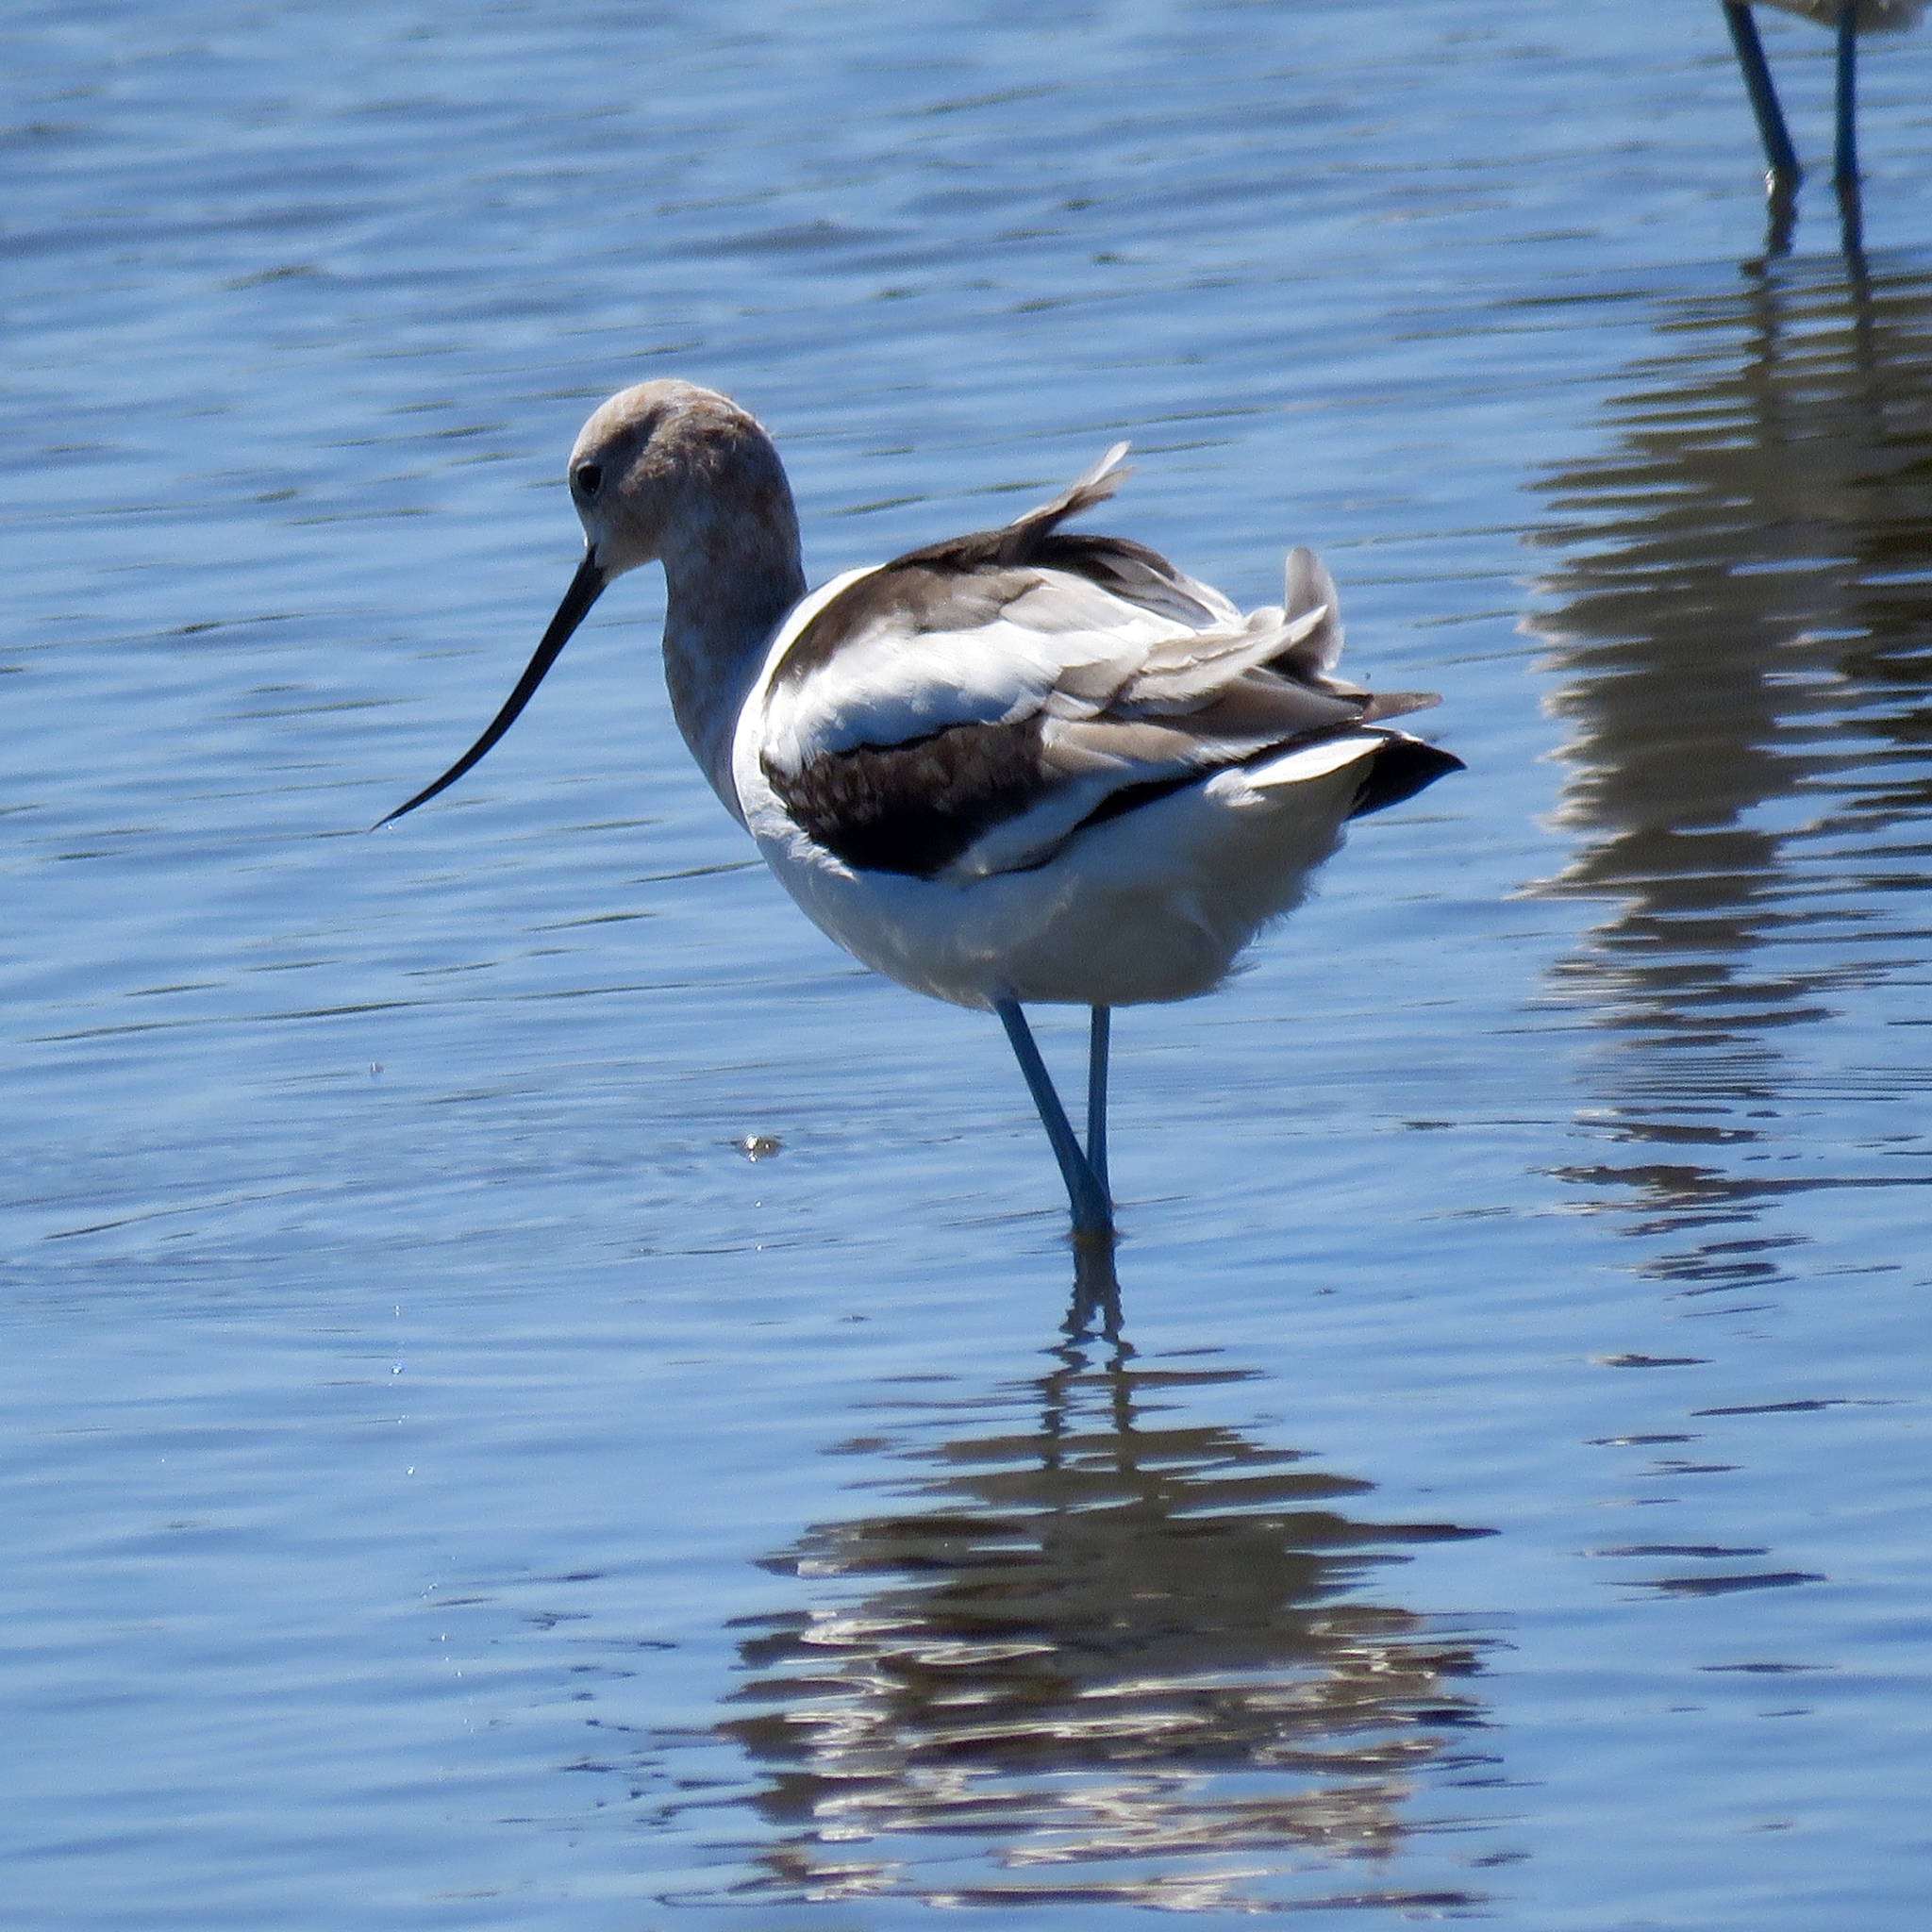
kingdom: Animalia
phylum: Chordata
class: Aves
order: Charadriiformes
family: Recurvirostridae
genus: Recurvirostra
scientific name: Recurvirostra americana
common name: American avocet
